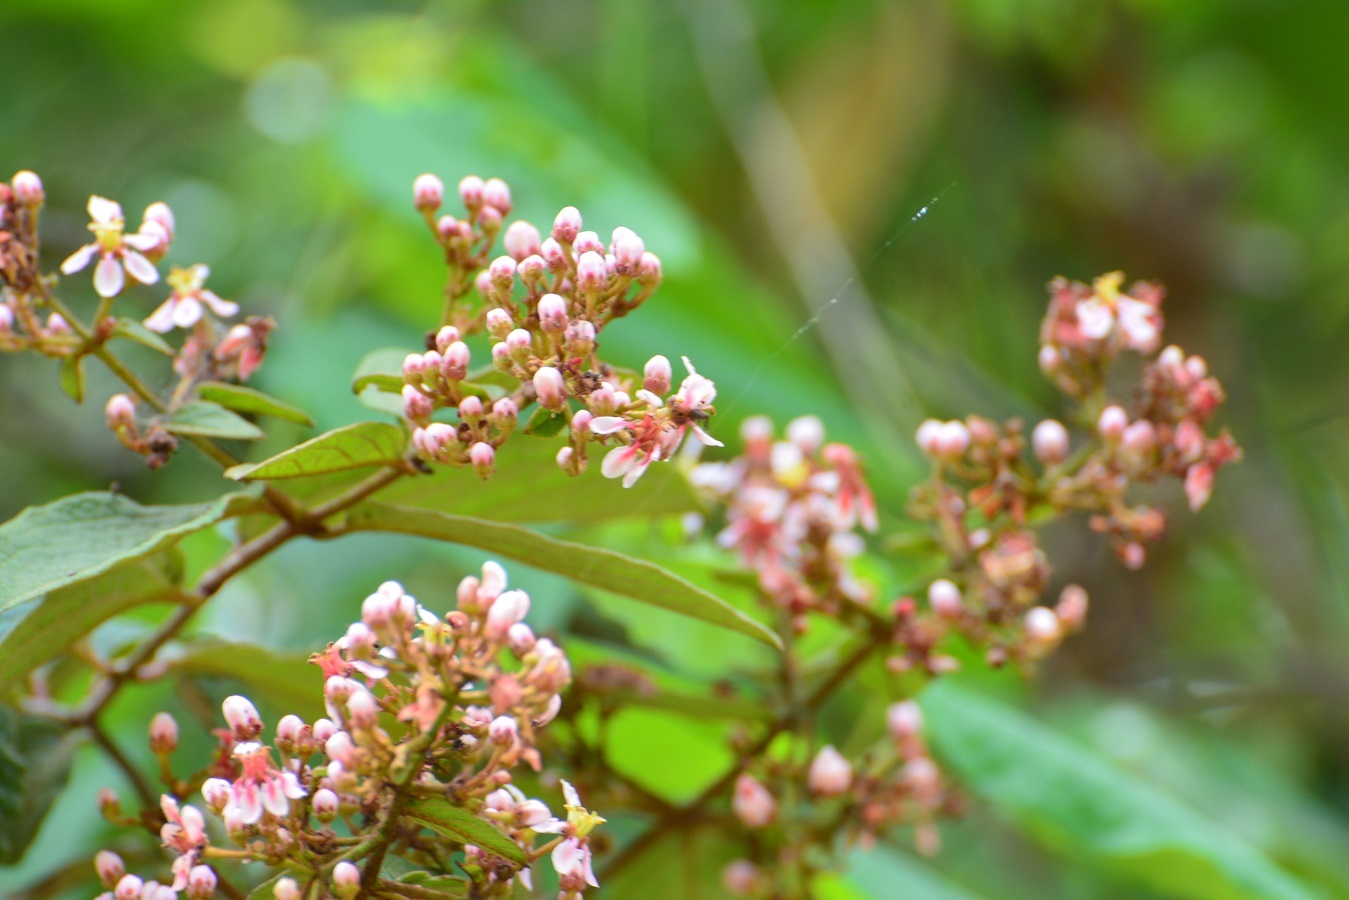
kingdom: Plantae
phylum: Tracheophyta
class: Magnoliopsida
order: Malpighiales
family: Malpighiaceae
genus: Heteropterys
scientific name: Heteropterys brachiata
